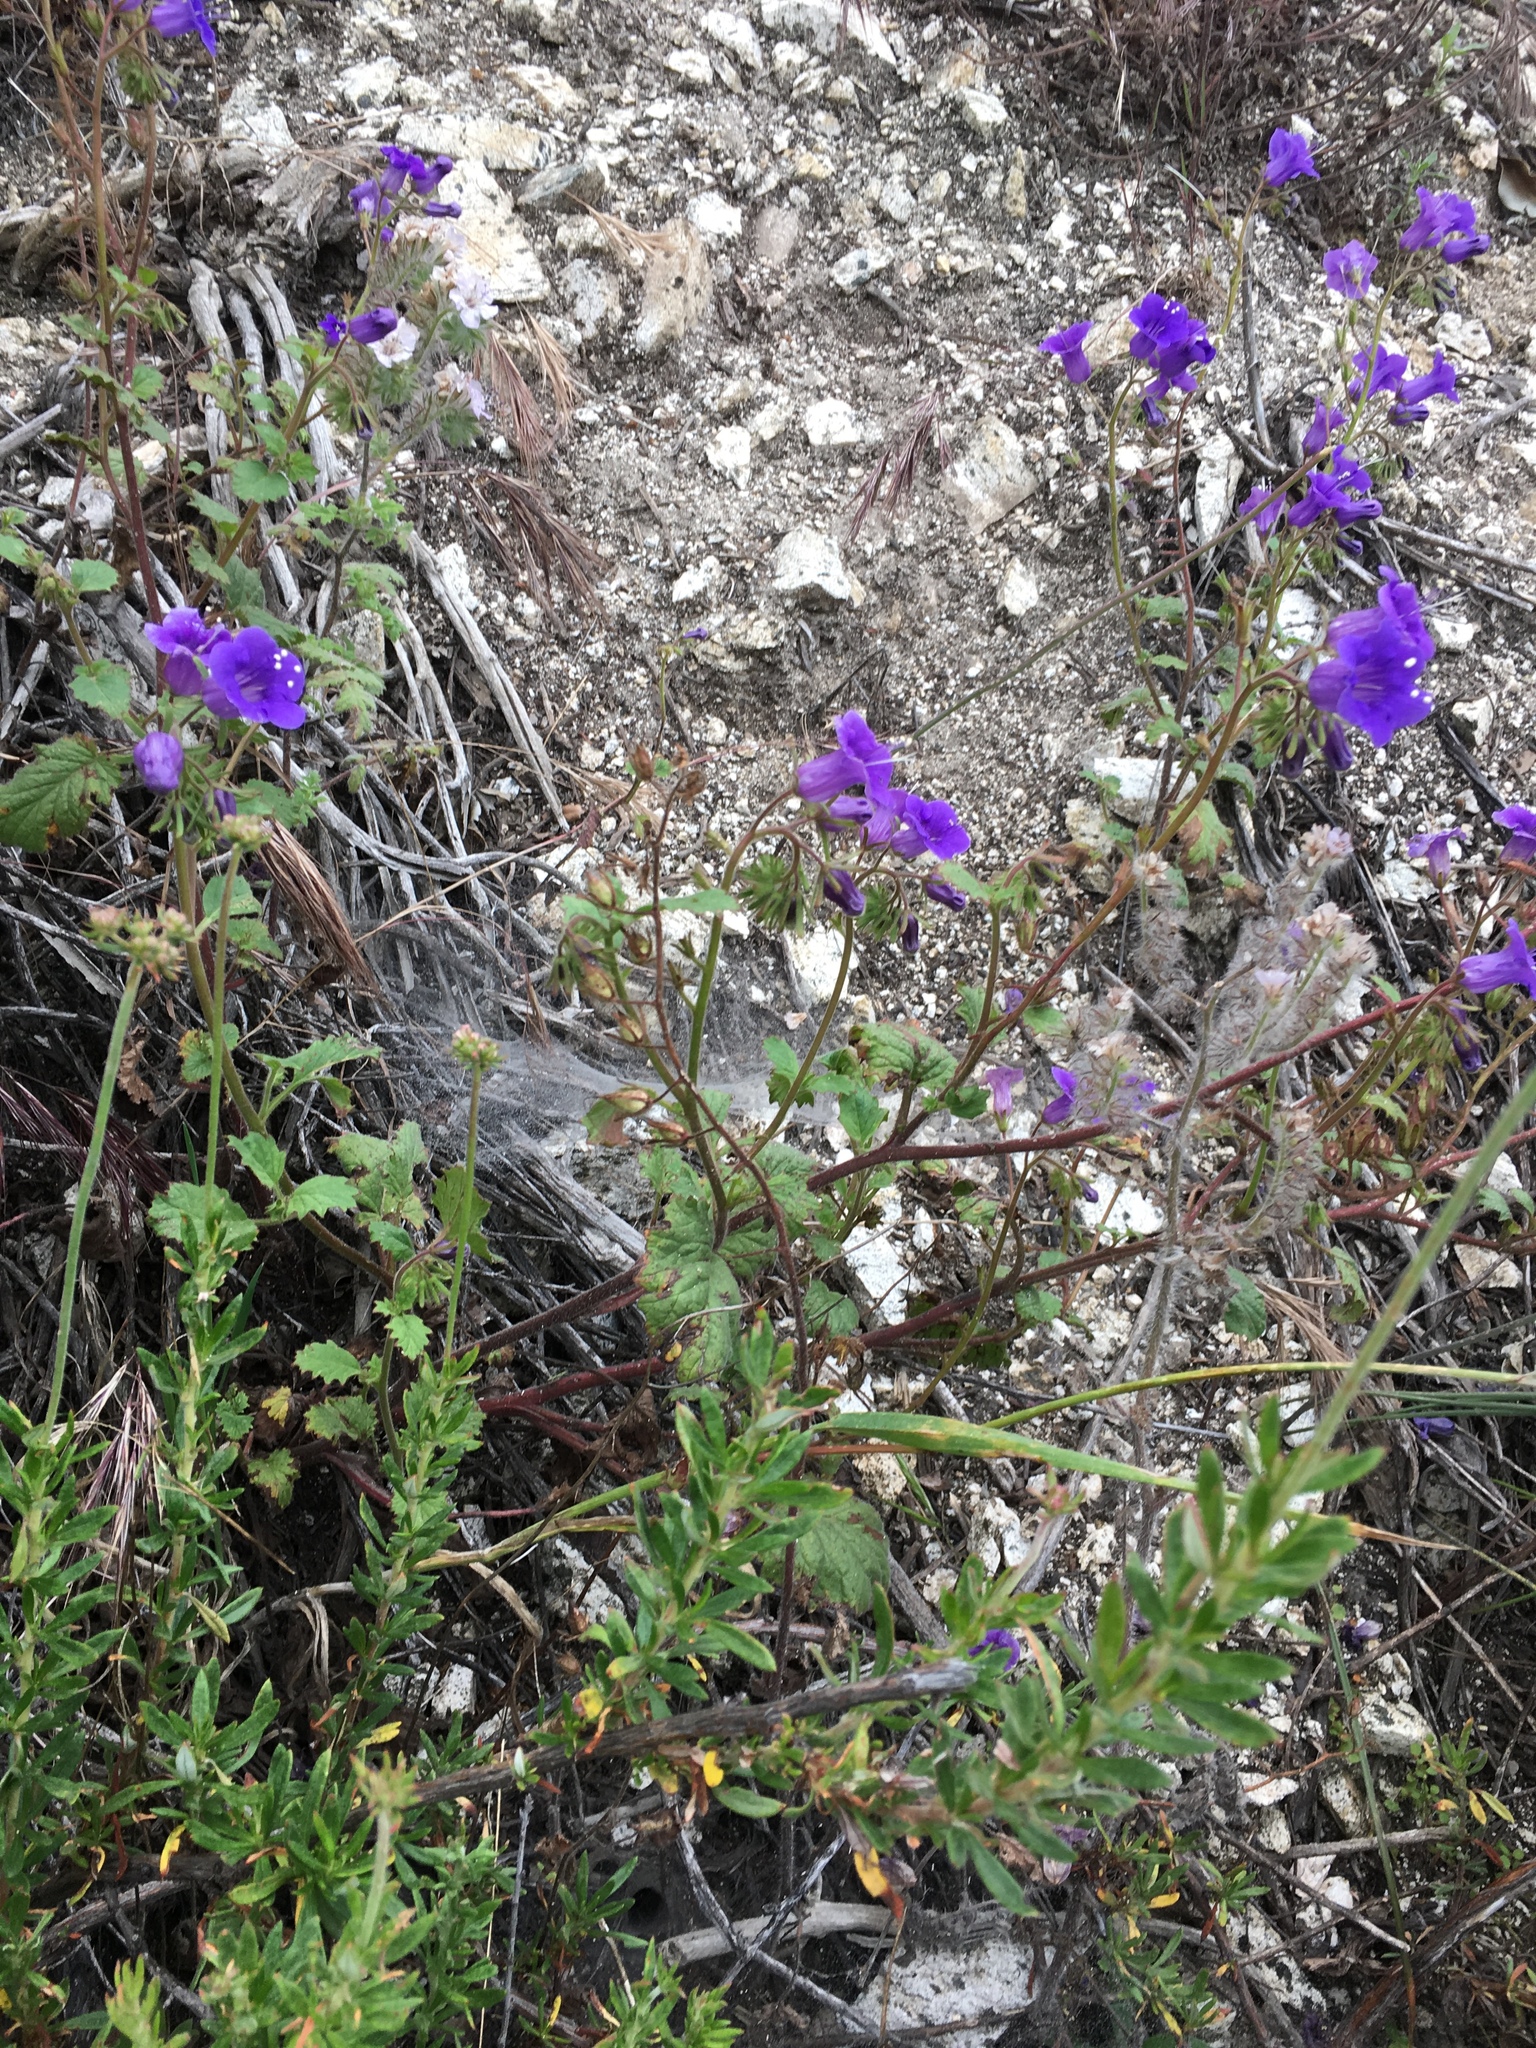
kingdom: Plantae
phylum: Tracheophyta
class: Magnoliopsida
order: Boraginales
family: Hydrophyllaceae
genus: Phacelia
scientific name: Phacelia minor
